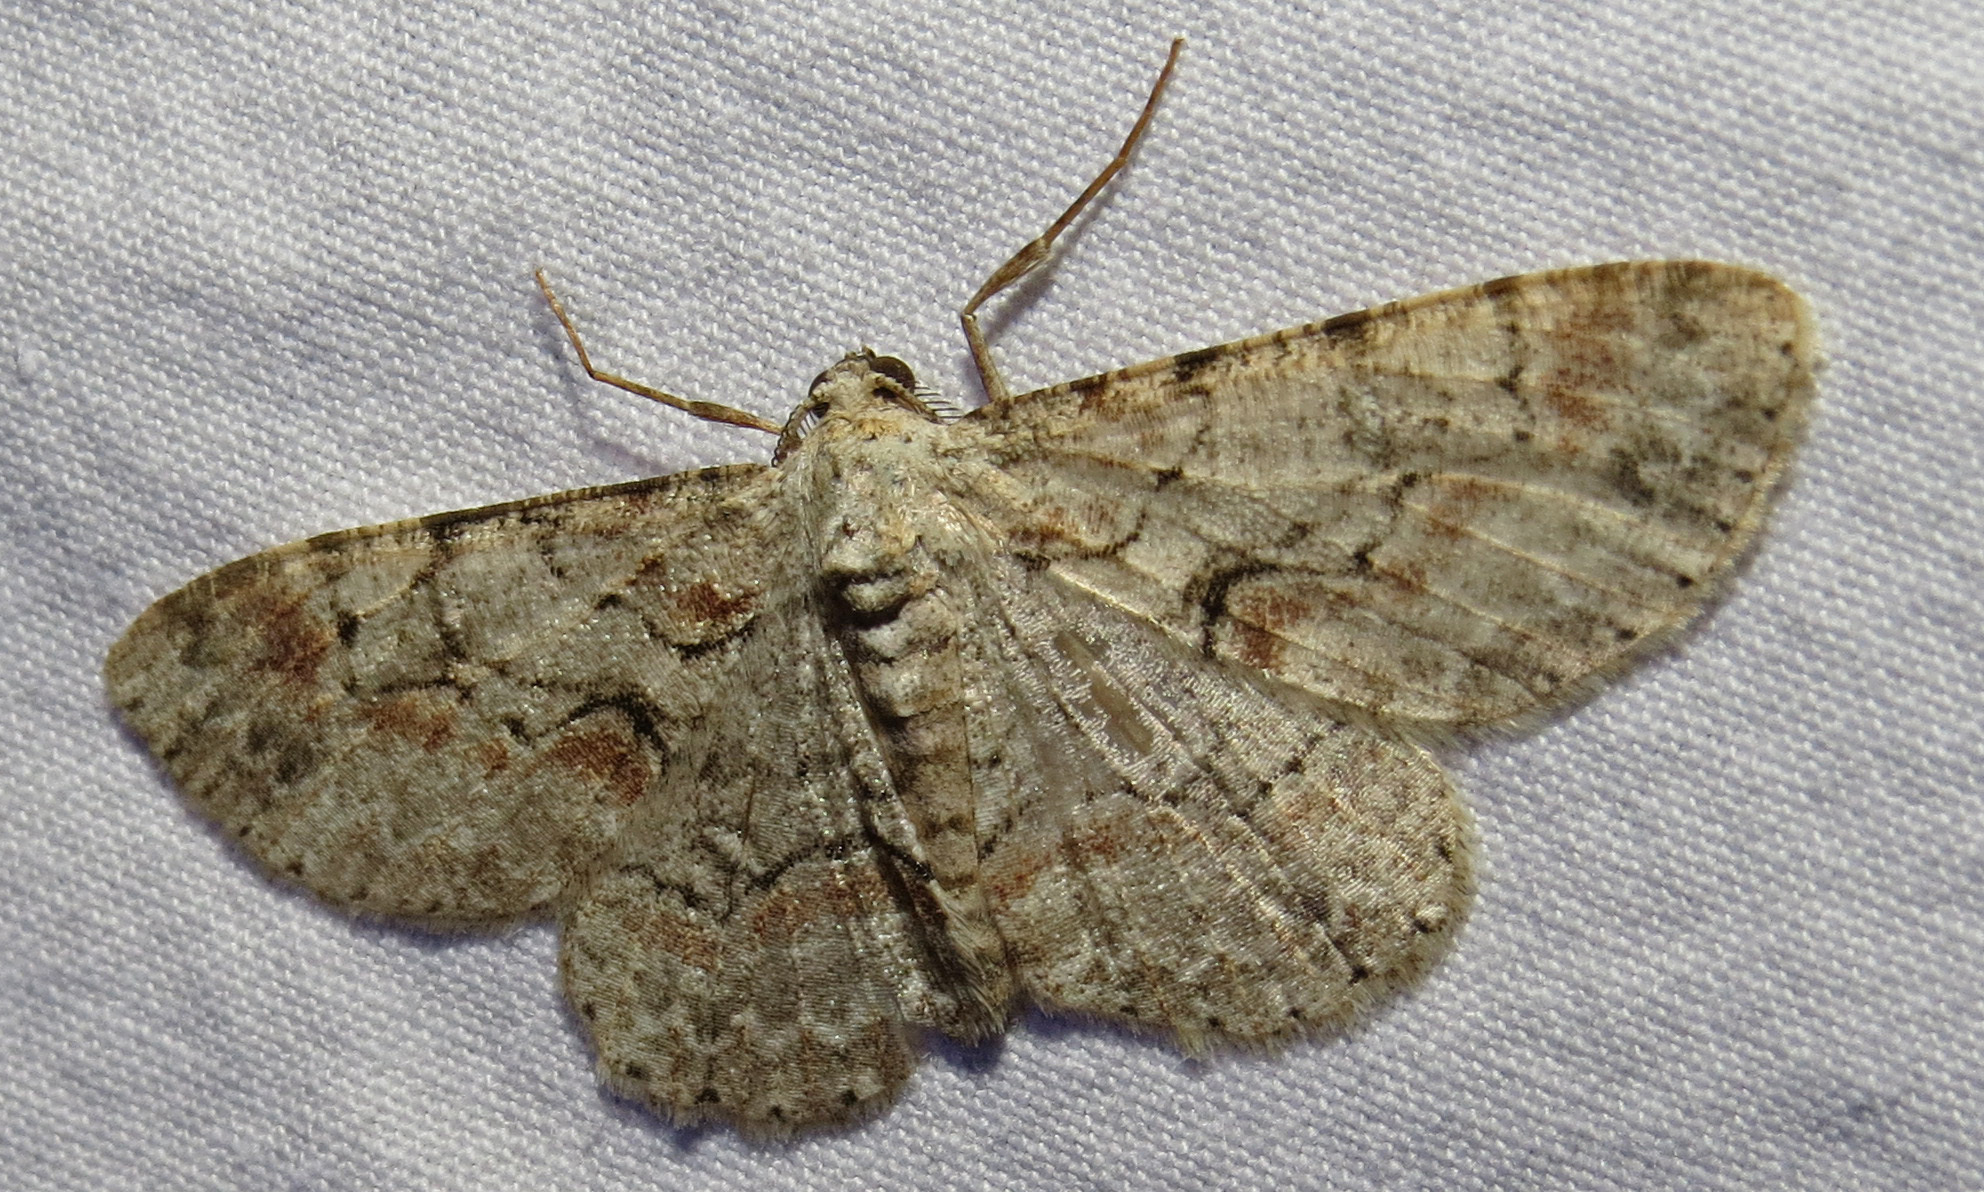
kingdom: Animalia
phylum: Arthropoda
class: Insecta
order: Lepidoptera
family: Geometridae
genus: Iridopsis
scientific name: Iridopsis defectaria
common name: Brown-shaded gray
